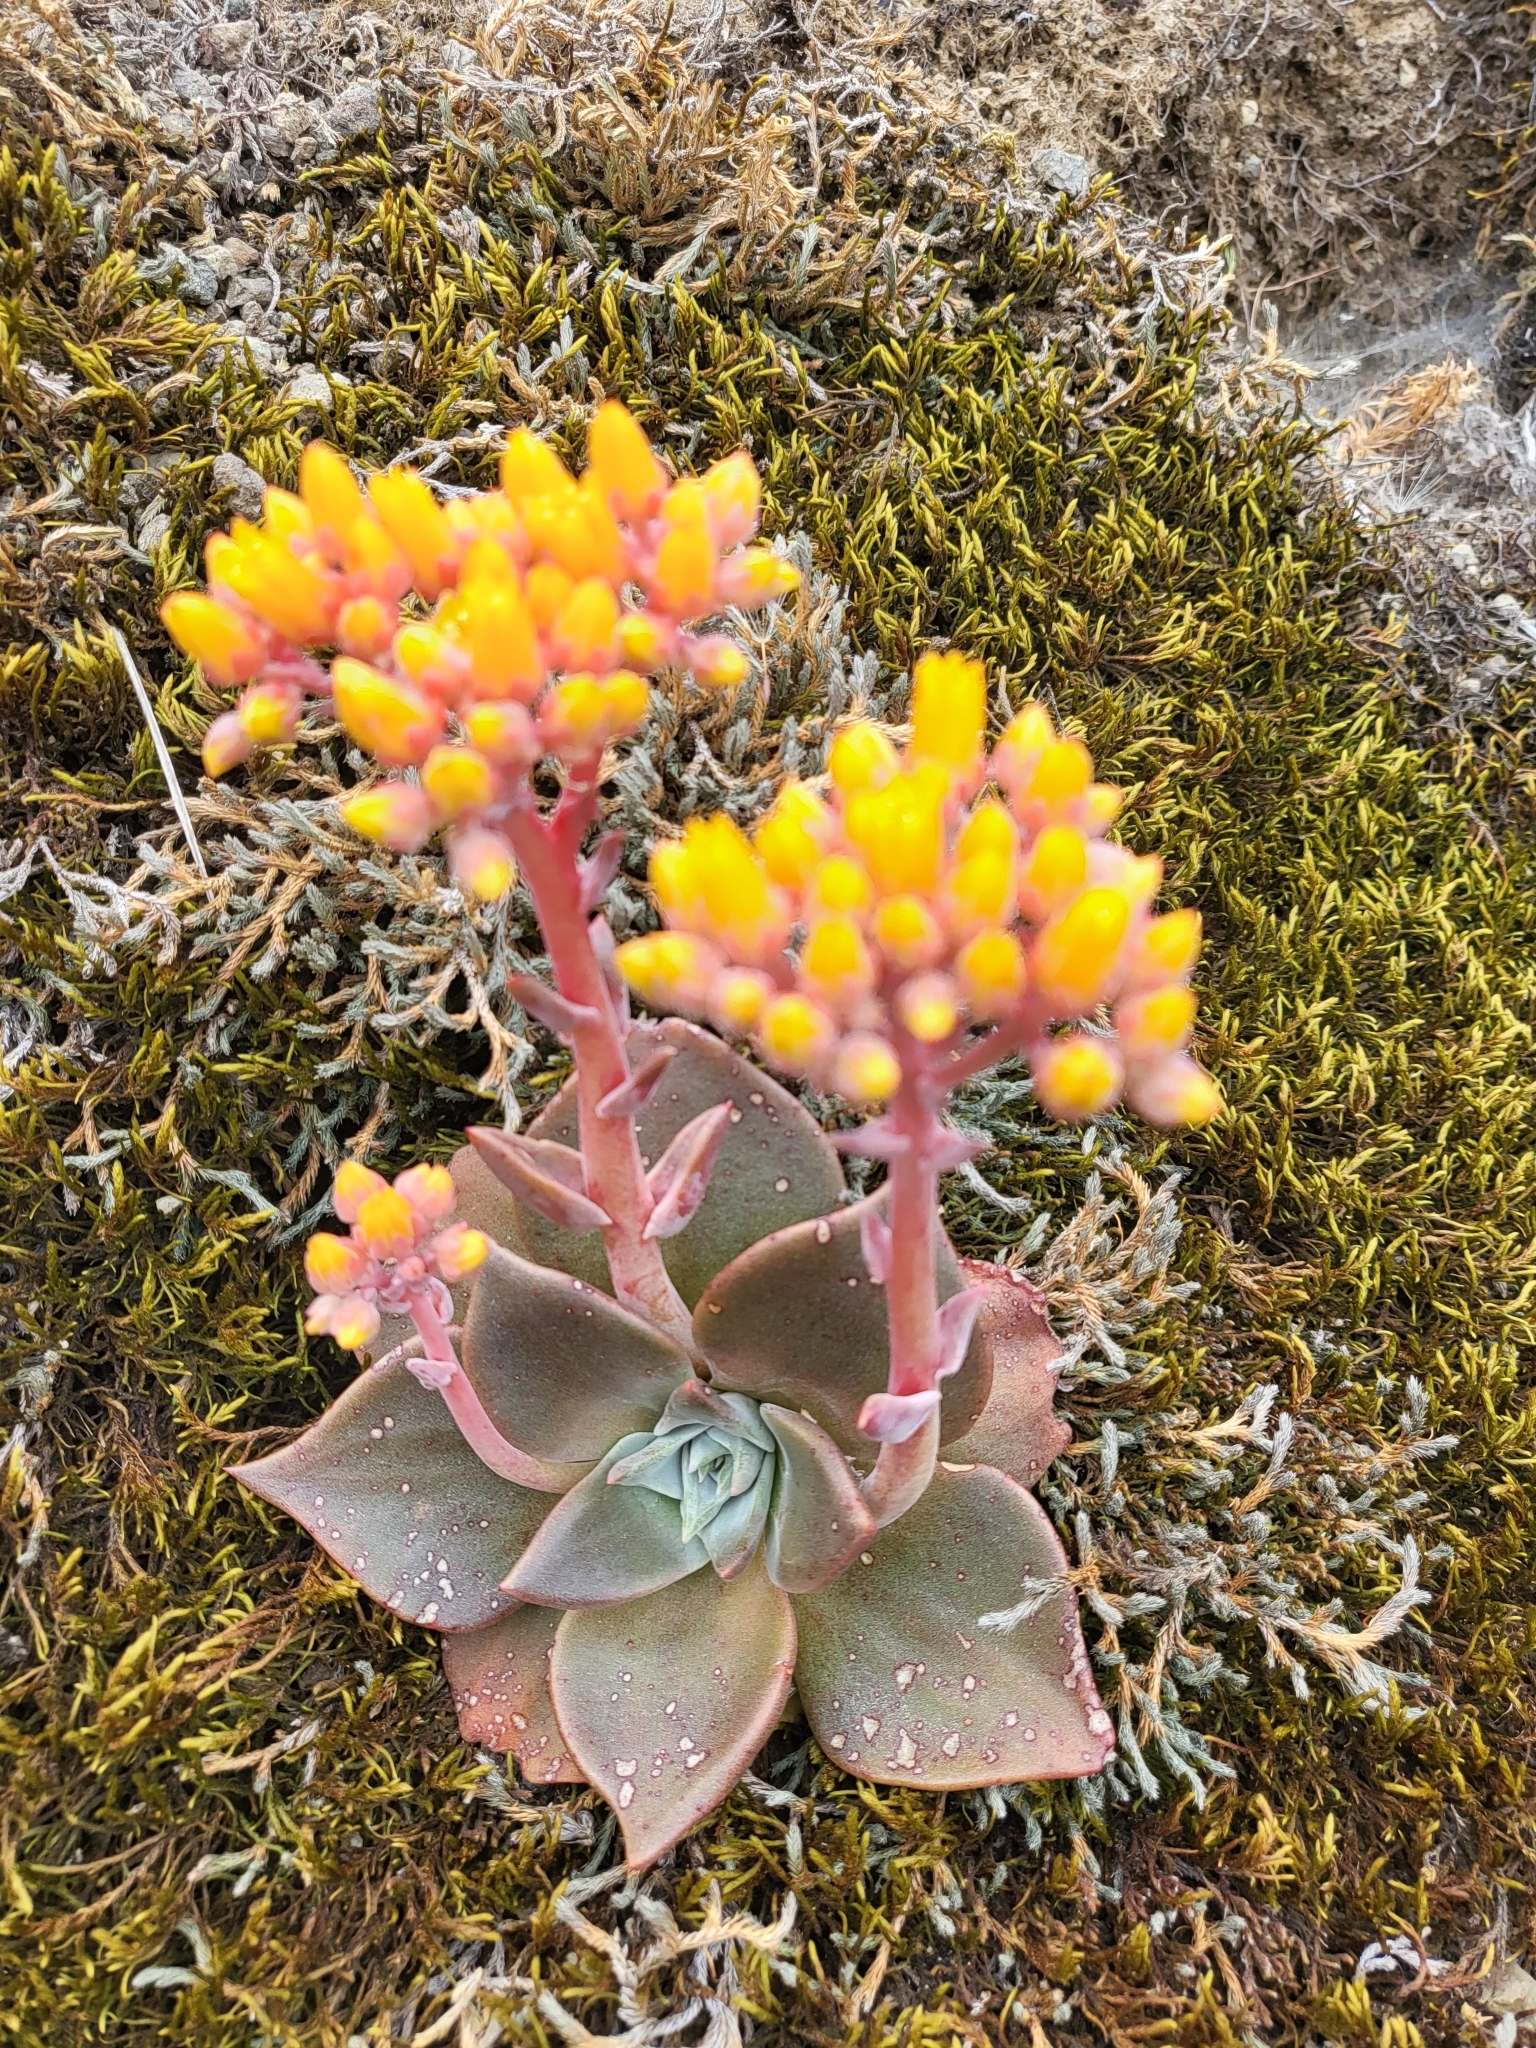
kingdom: Plantae
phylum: Tracheophyta
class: Magnoliopsida
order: Saxifragales
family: Crassulaceae
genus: Dudleya
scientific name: Dudleya cymosa
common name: Canyon dudleya
